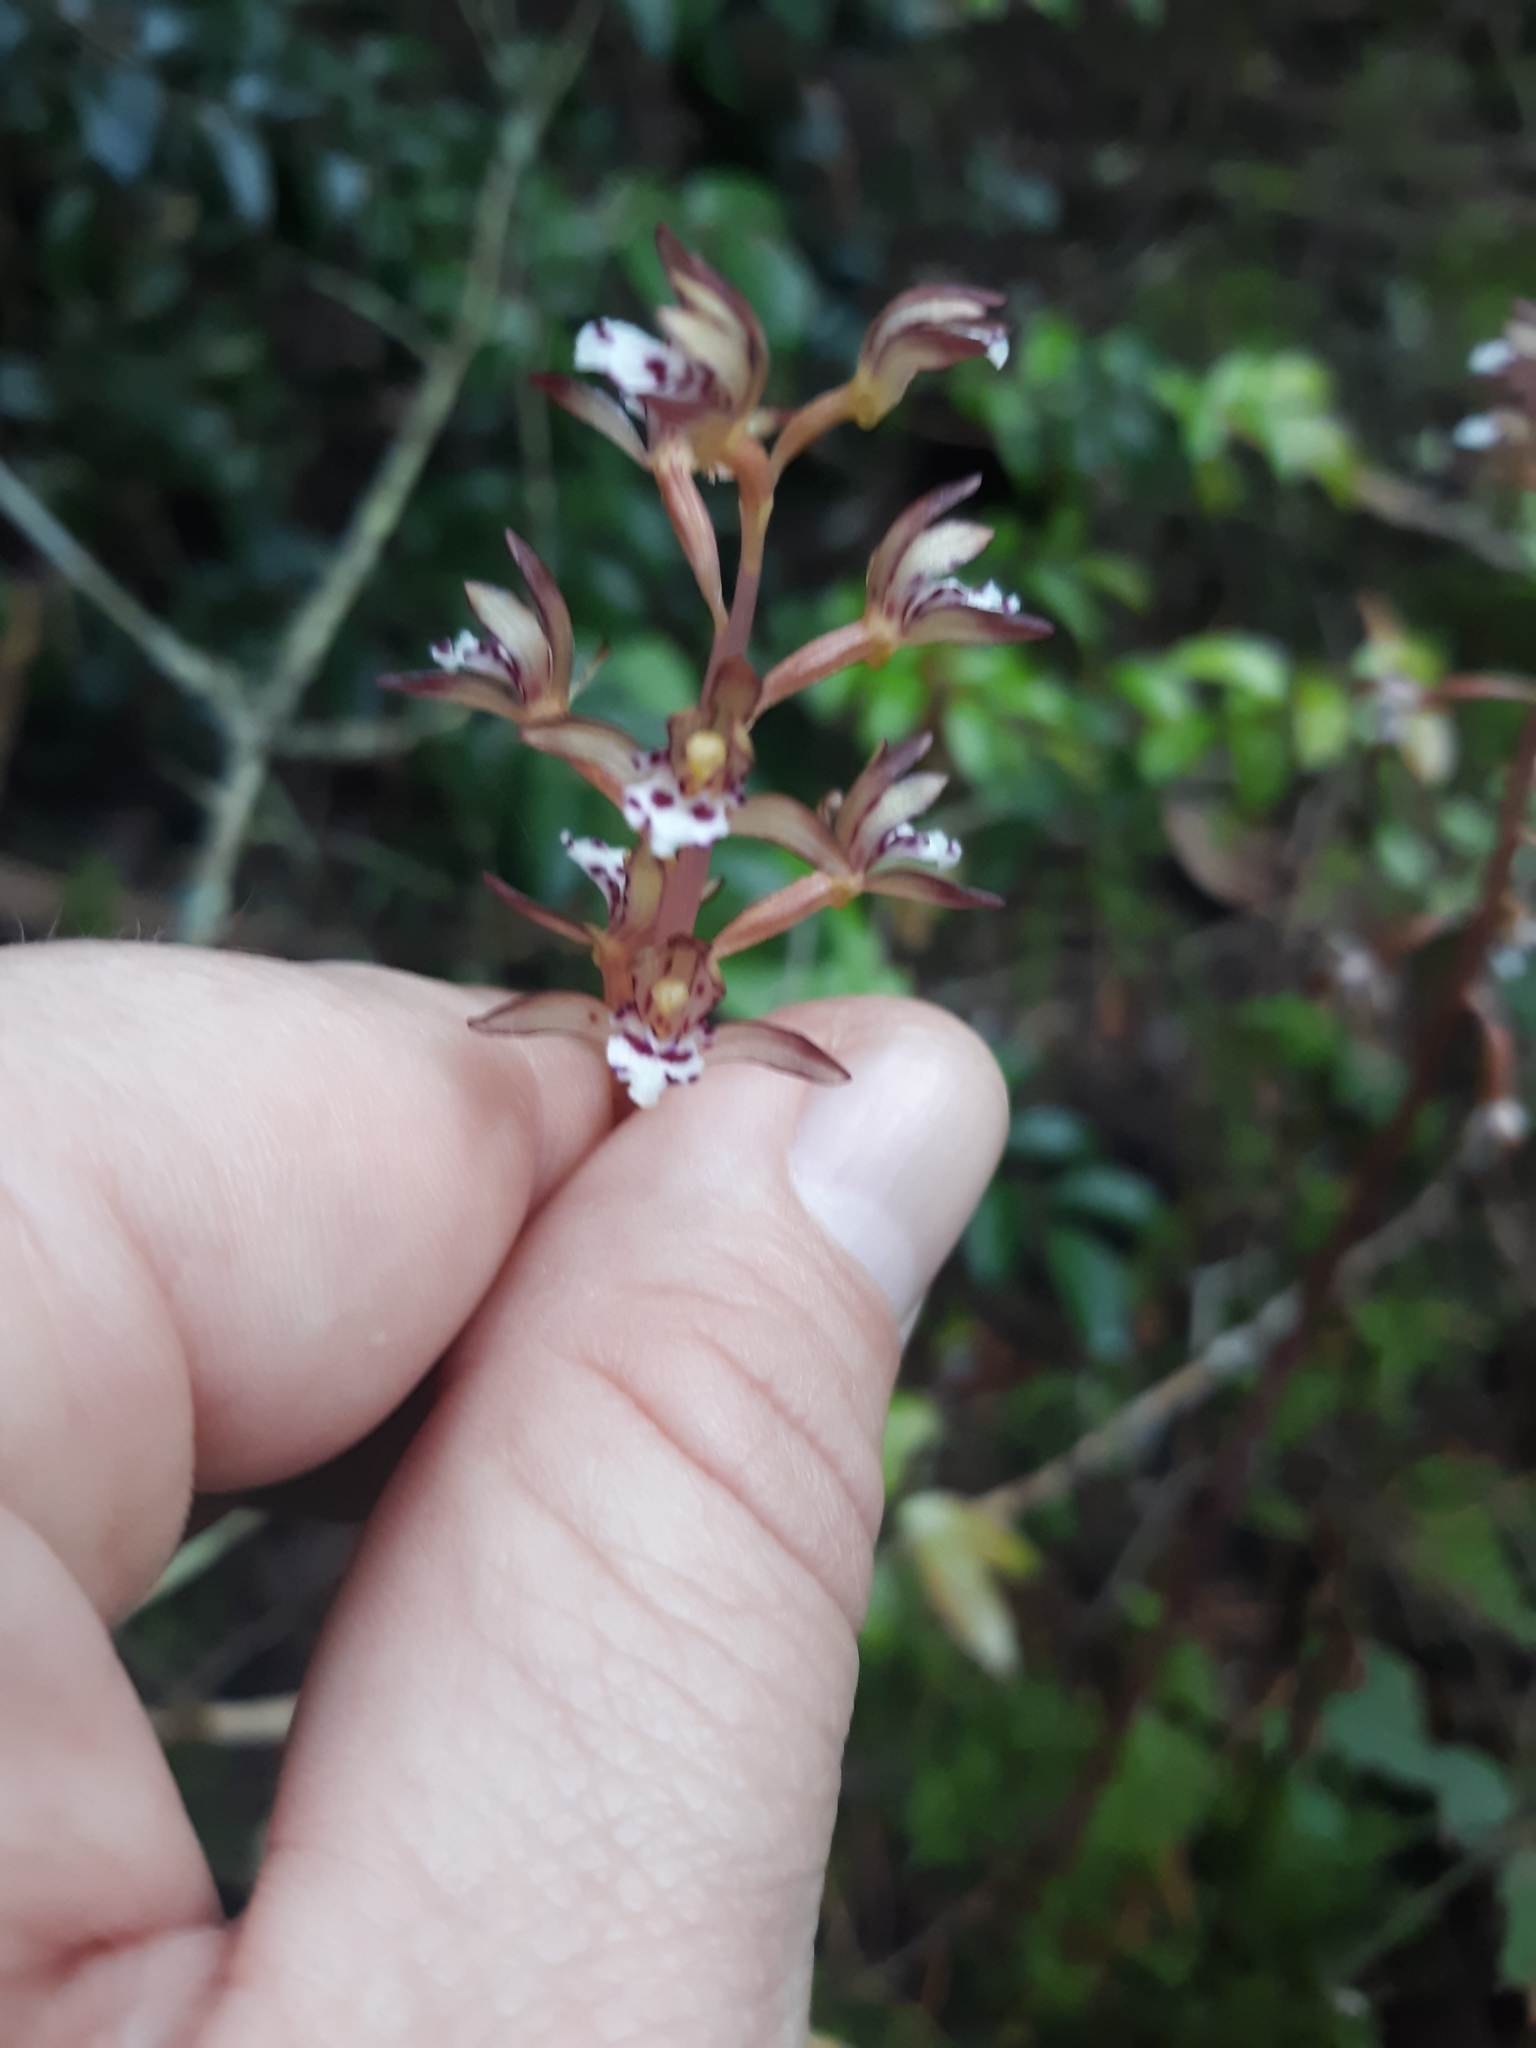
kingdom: Plantae
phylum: Tracheophyta
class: Liliopsida
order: Asparagales
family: Orchidaceae
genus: Corallorhiza
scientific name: Corallorhiza maculata
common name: Spotted coralroot
